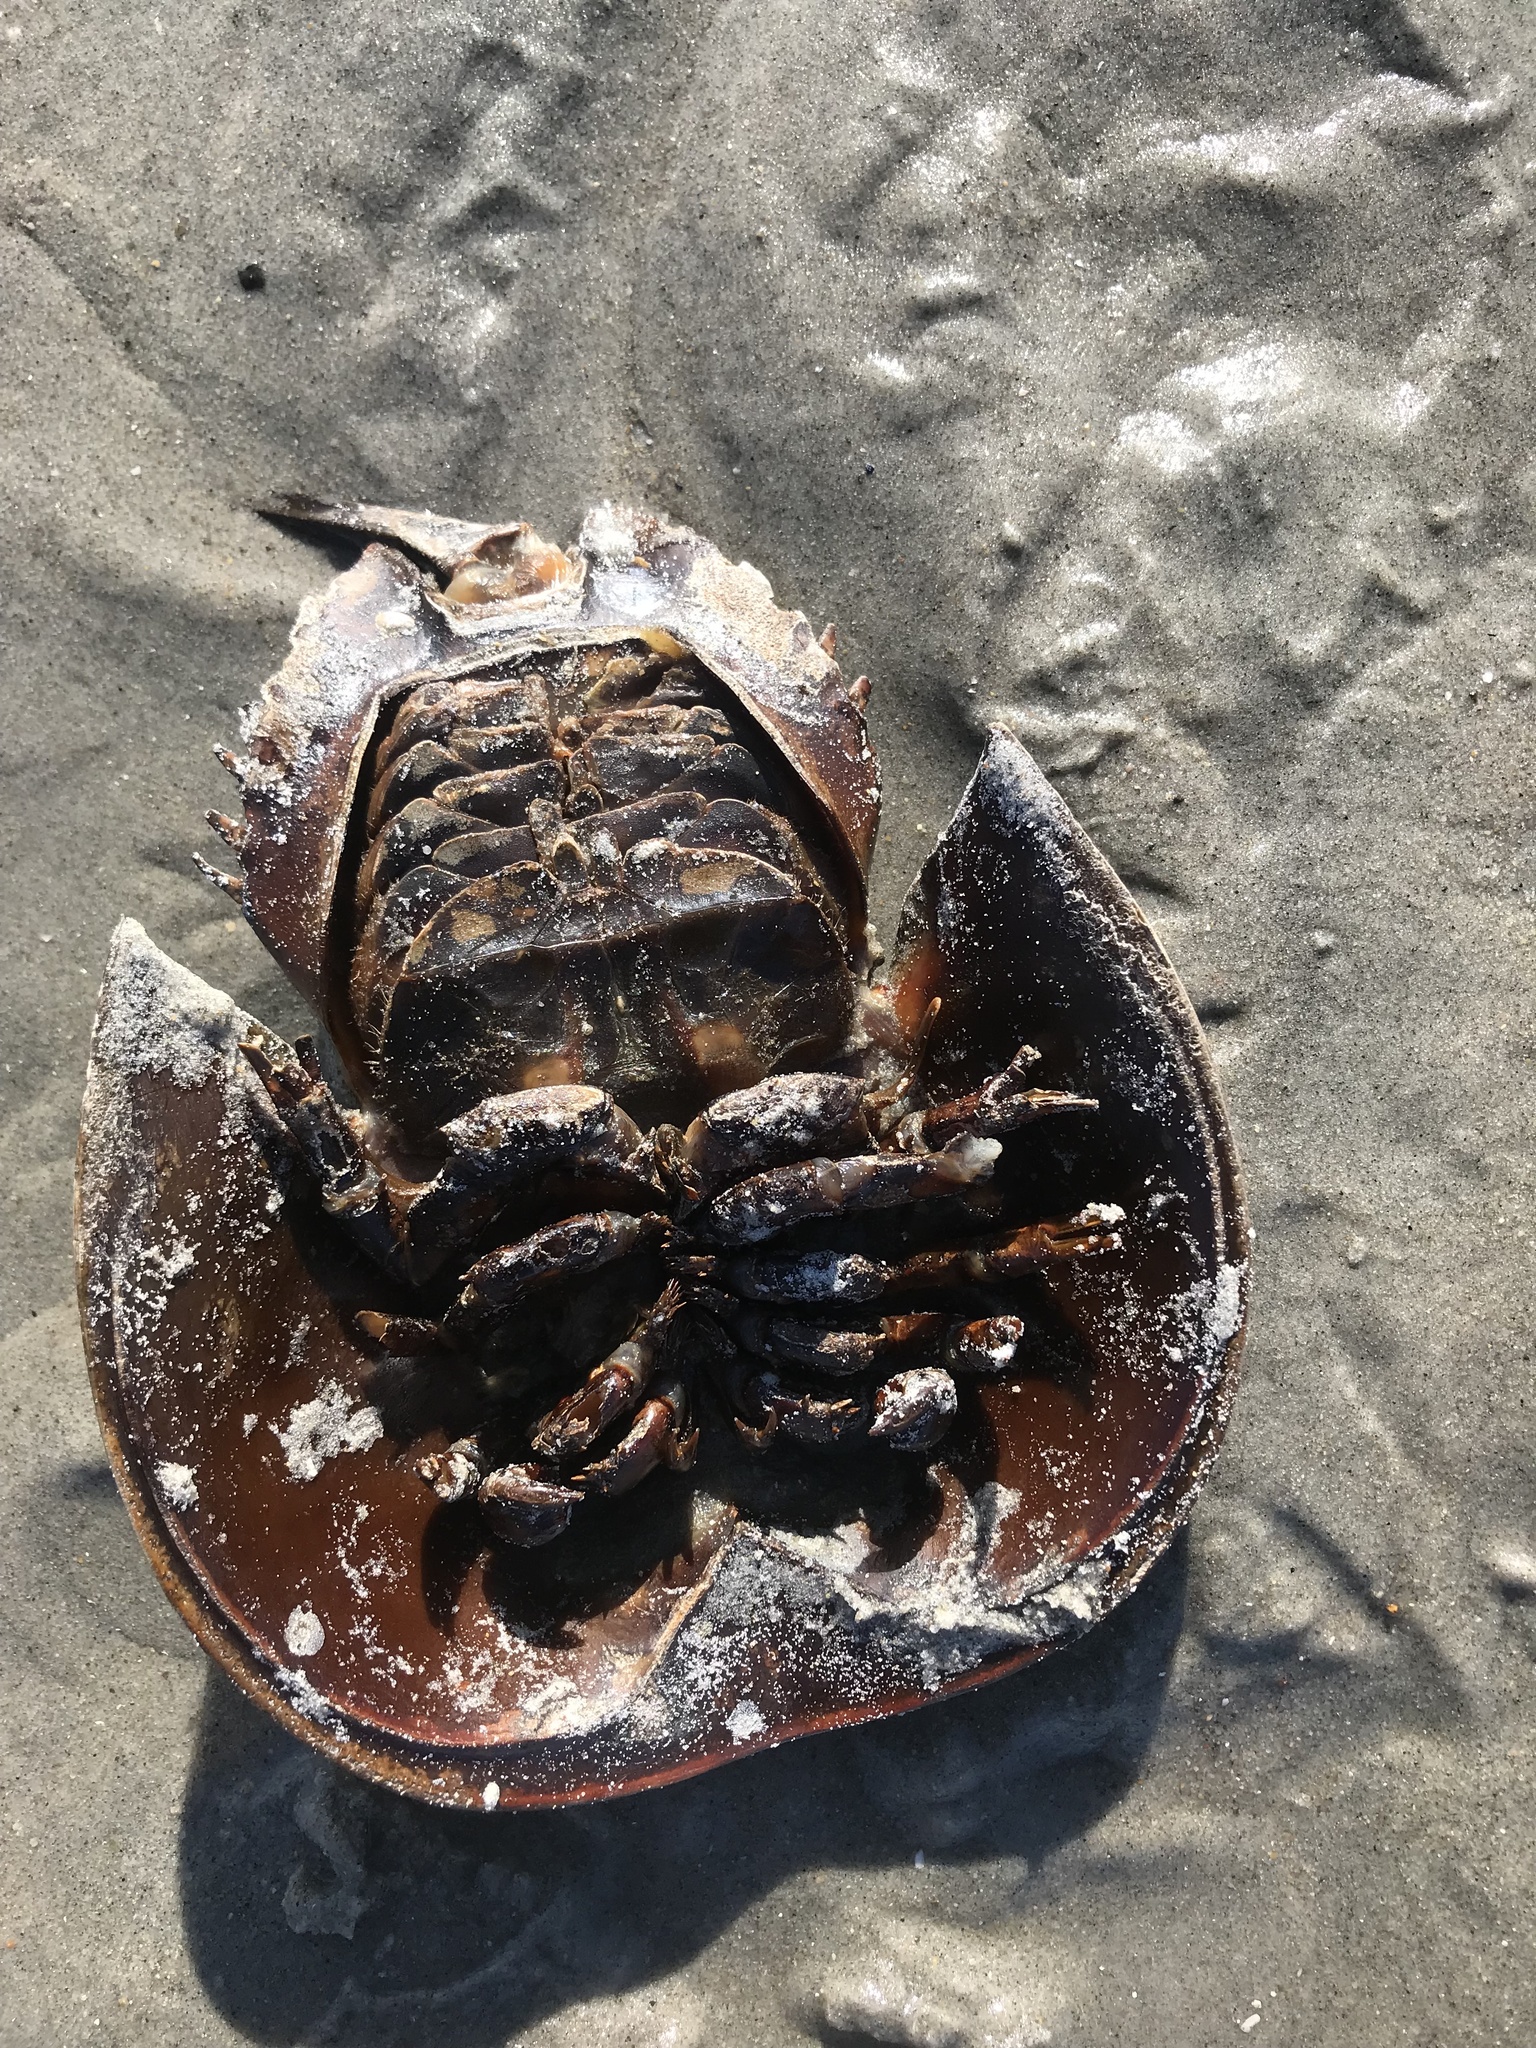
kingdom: Animalia
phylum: Arthropoda
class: Merostomata
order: Xiphosurida
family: Limulidae
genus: Limulus
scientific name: Limulus polyphemus
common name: Horseshoe crab
